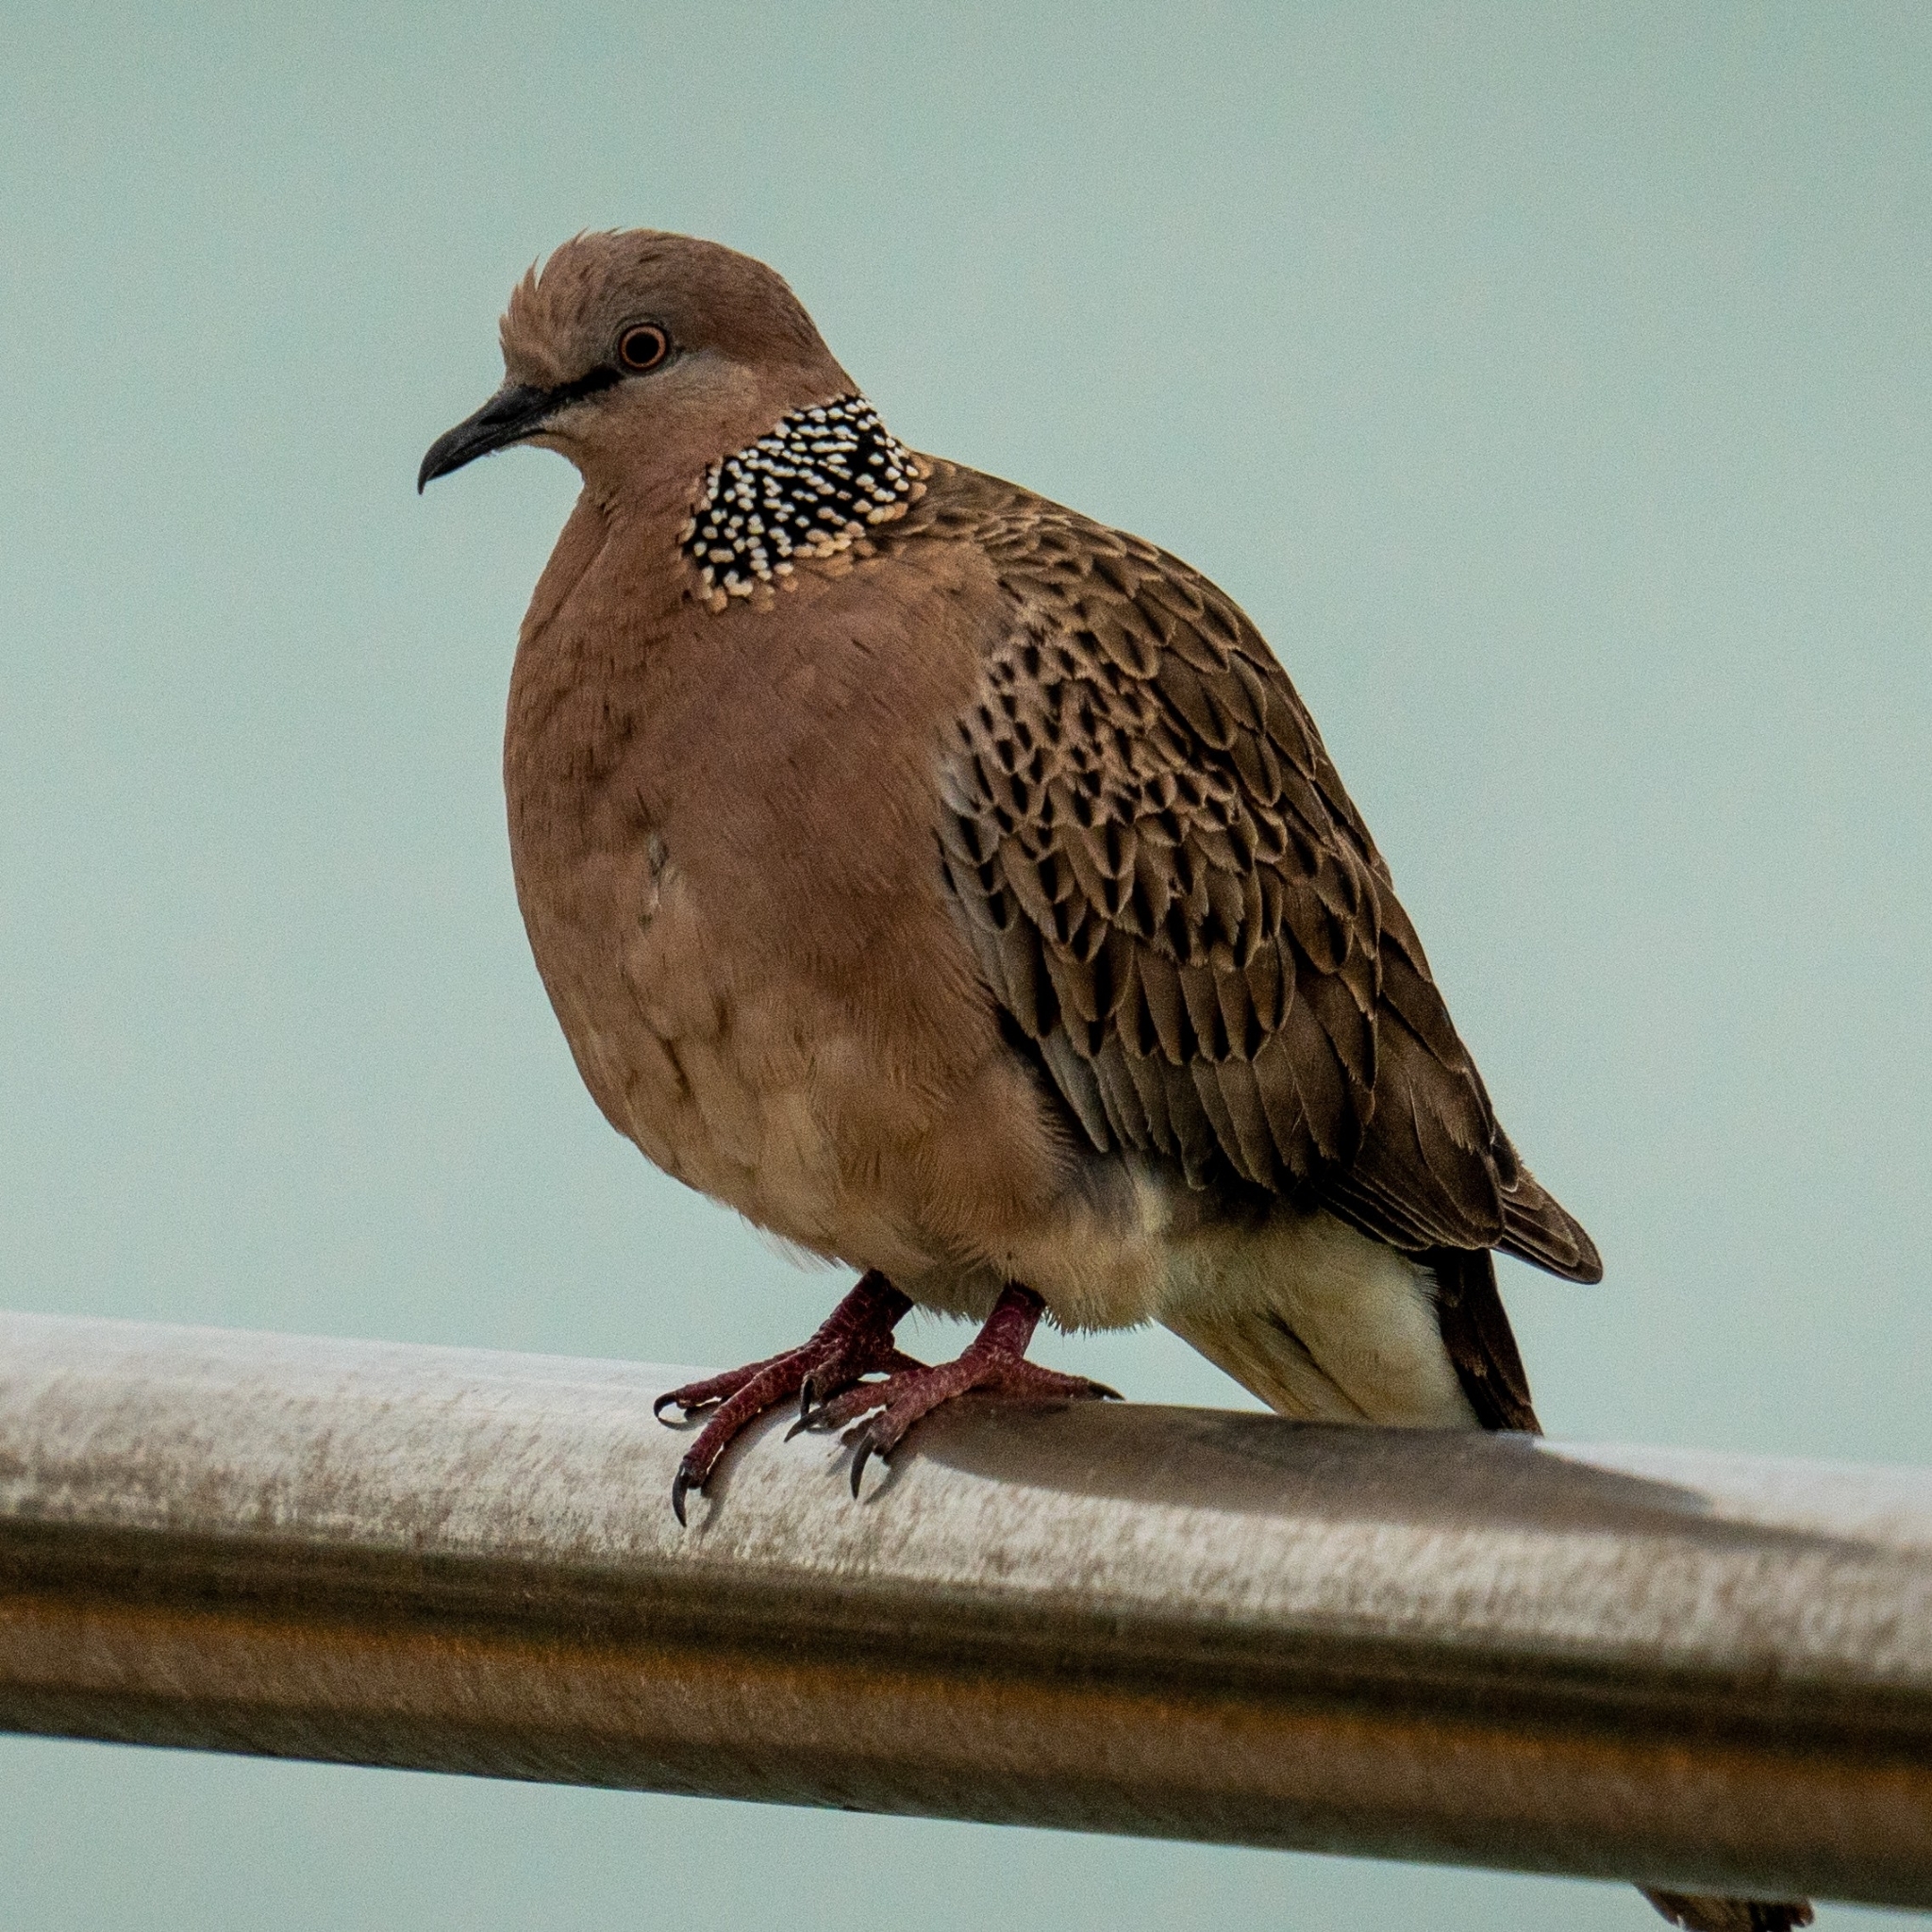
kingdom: Animalia
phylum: Chordata
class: Aves
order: Columbiformes
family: Columbidae
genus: Spilopelia
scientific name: Spilopelia chinensis
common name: Spotted dove
